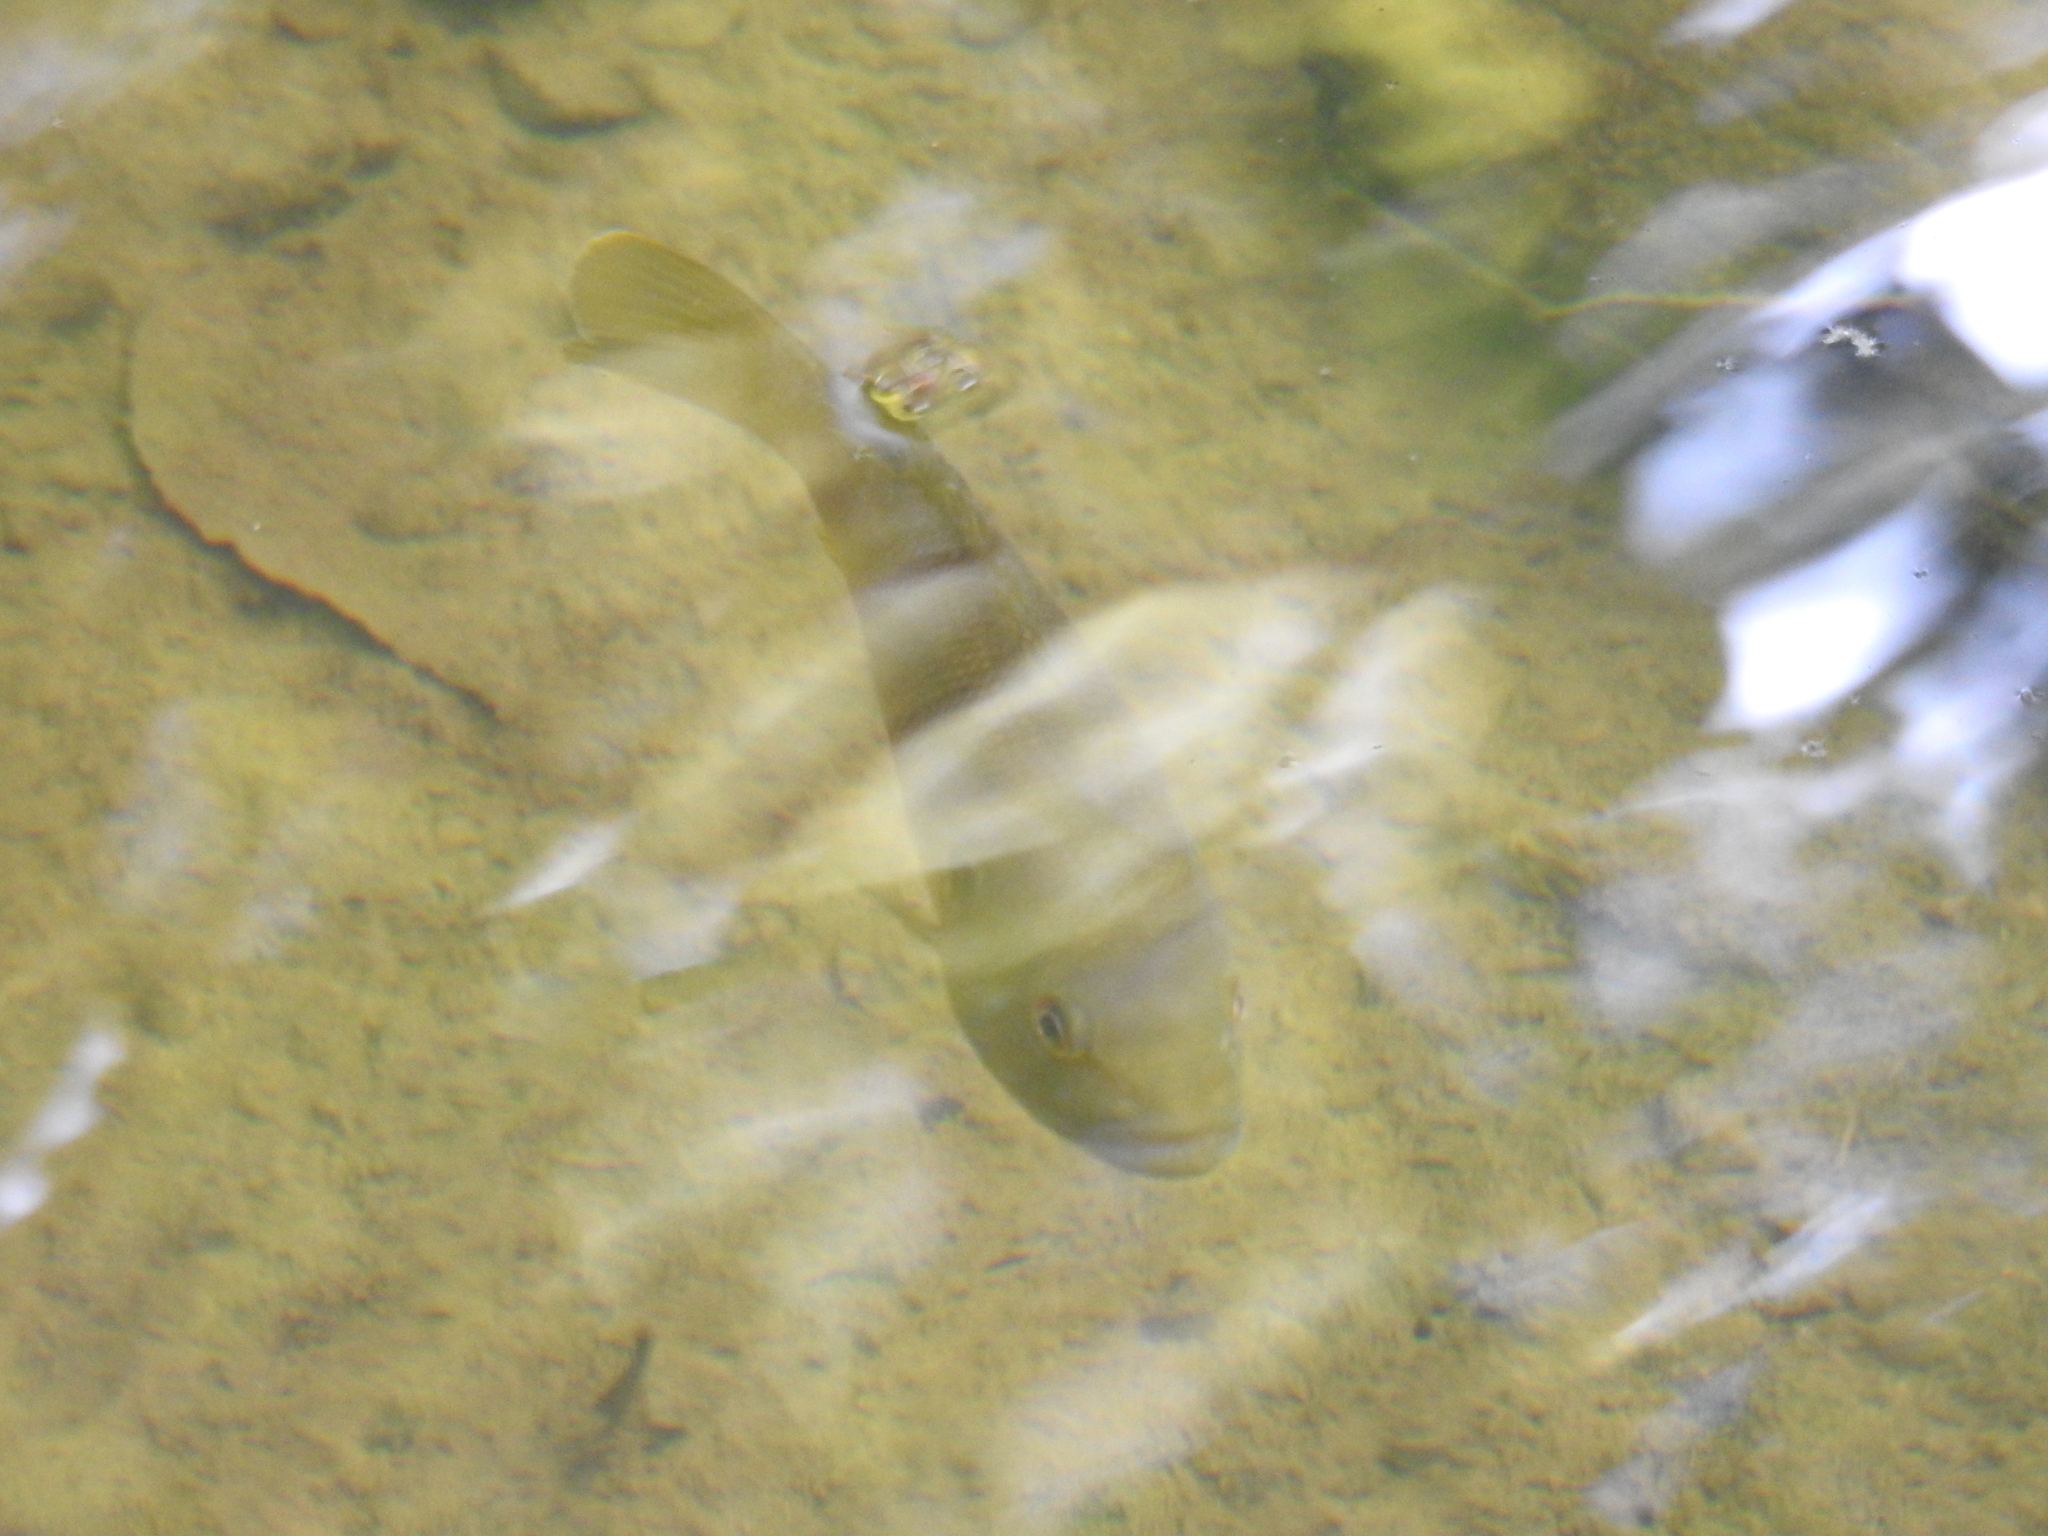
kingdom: Animalia
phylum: Chordata
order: Perciformes
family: Centrarchidae
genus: Lepomis
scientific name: Lepomis cyanellus
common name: Green sunfish
